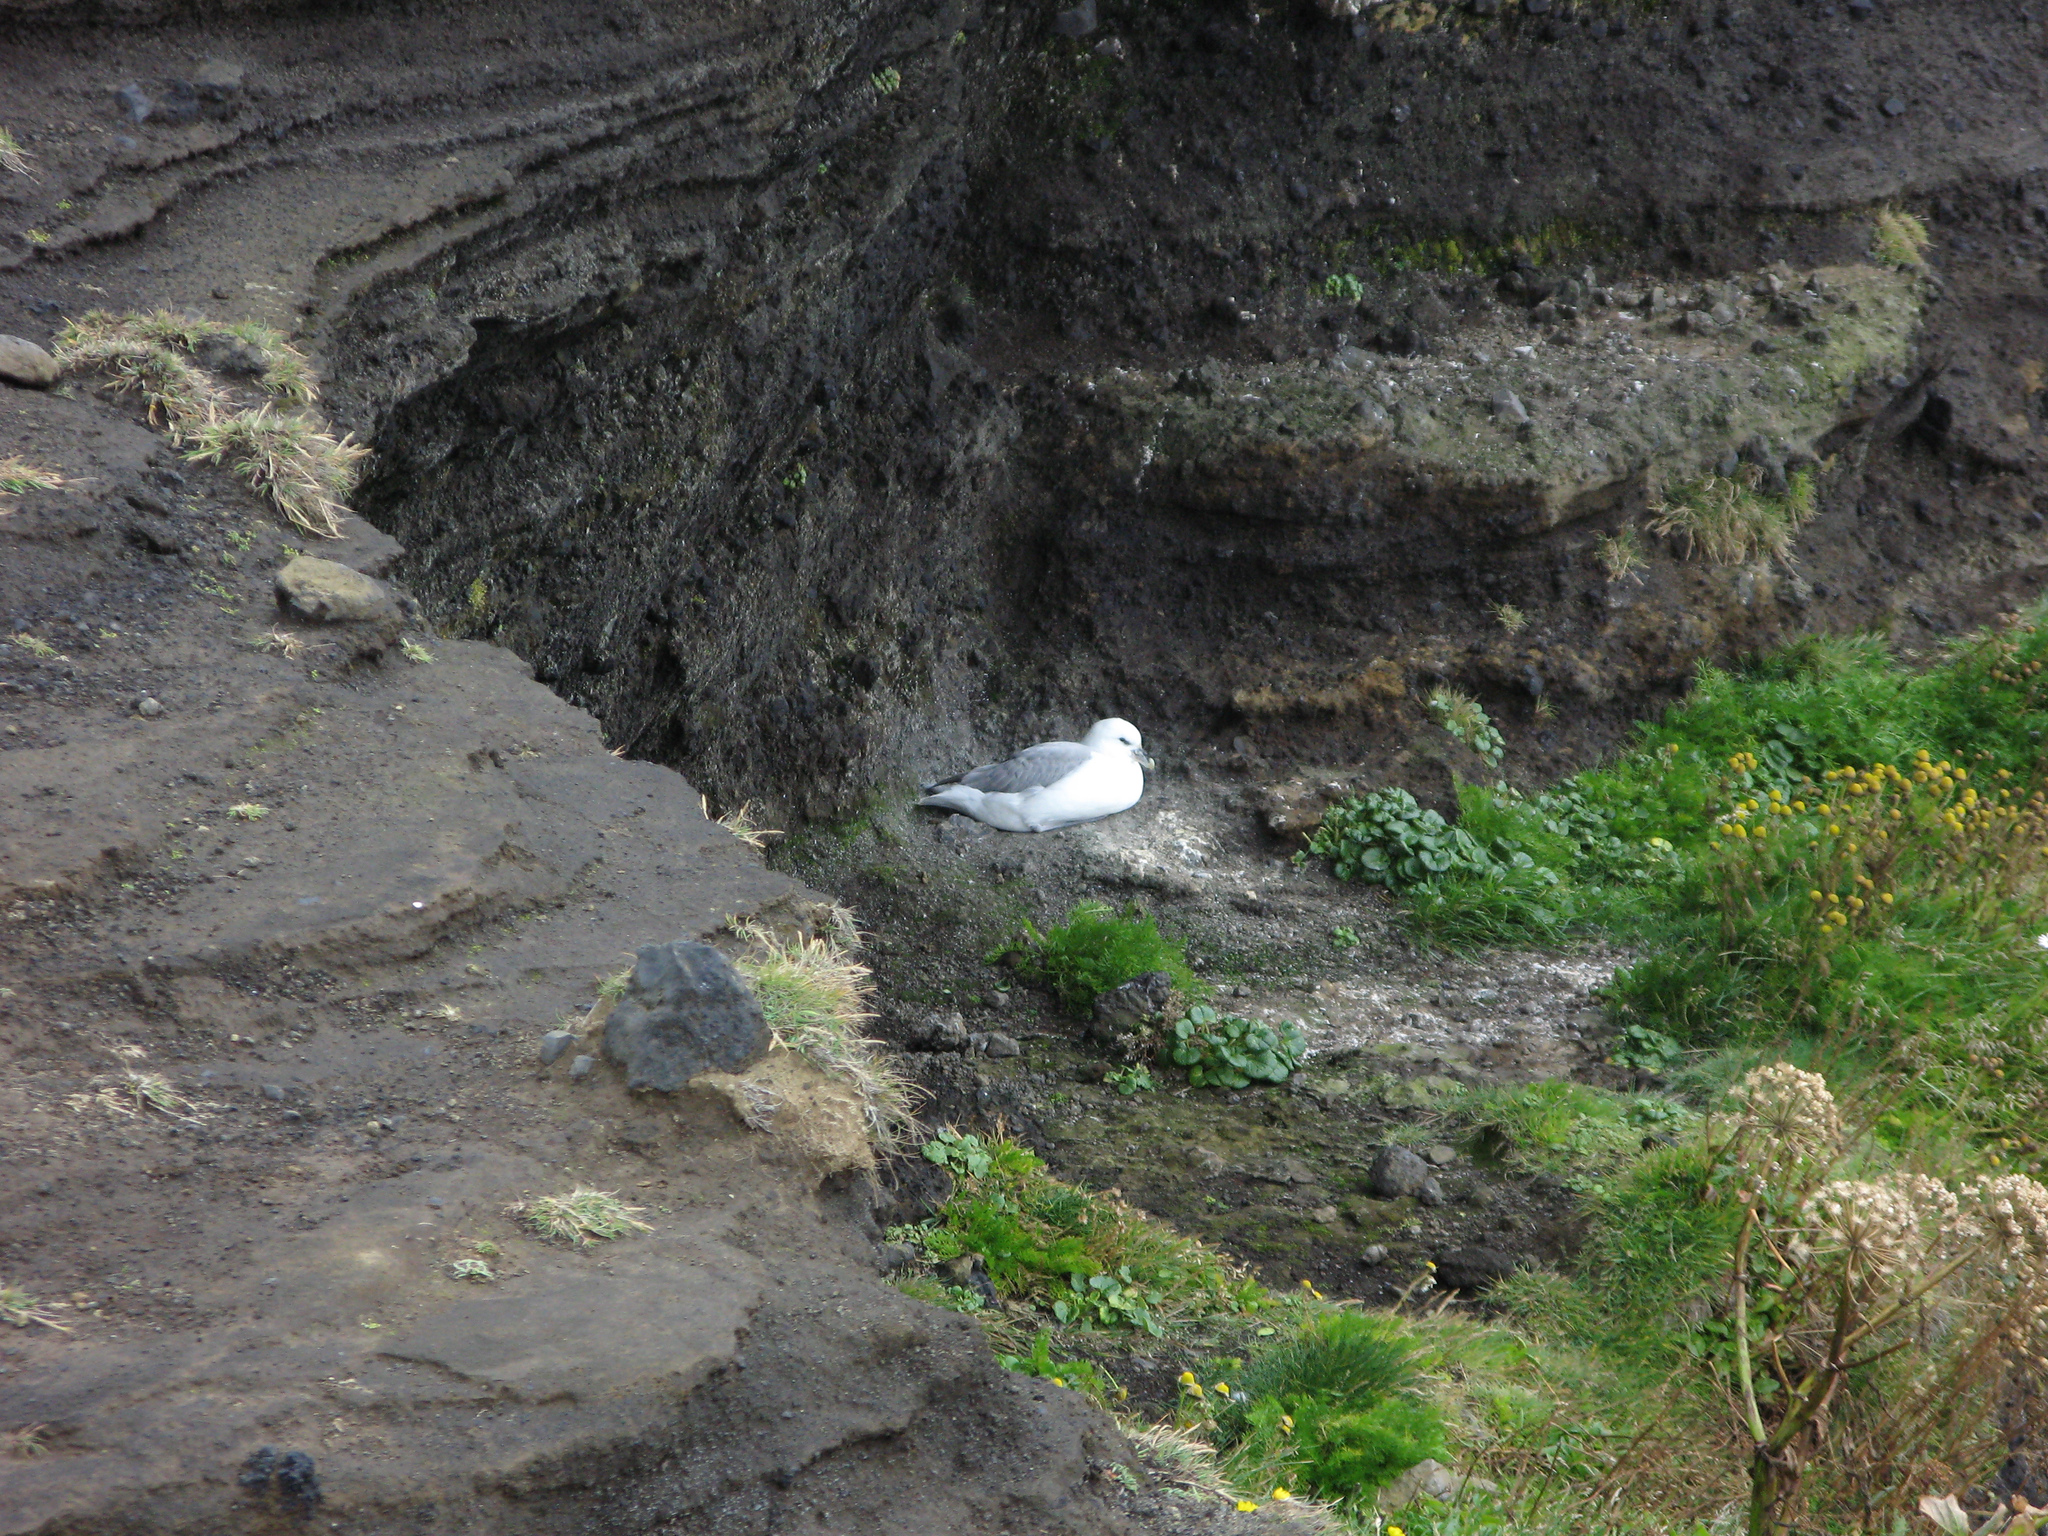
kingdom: Animalia
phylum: Chordata
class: Aves
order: Procellariiformes
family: Procellariidae
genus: Fulmarus
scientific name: Fulmarus glacialis
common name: Northern fulmar
